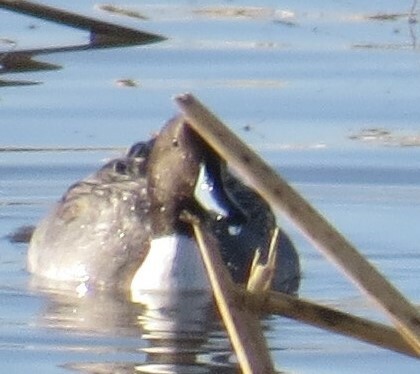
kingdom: Animalia
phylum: Chordata
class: Aves
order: Anseriformes
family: Anatidae
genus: Anas
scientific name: Anas acuta
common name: Northern pintail
